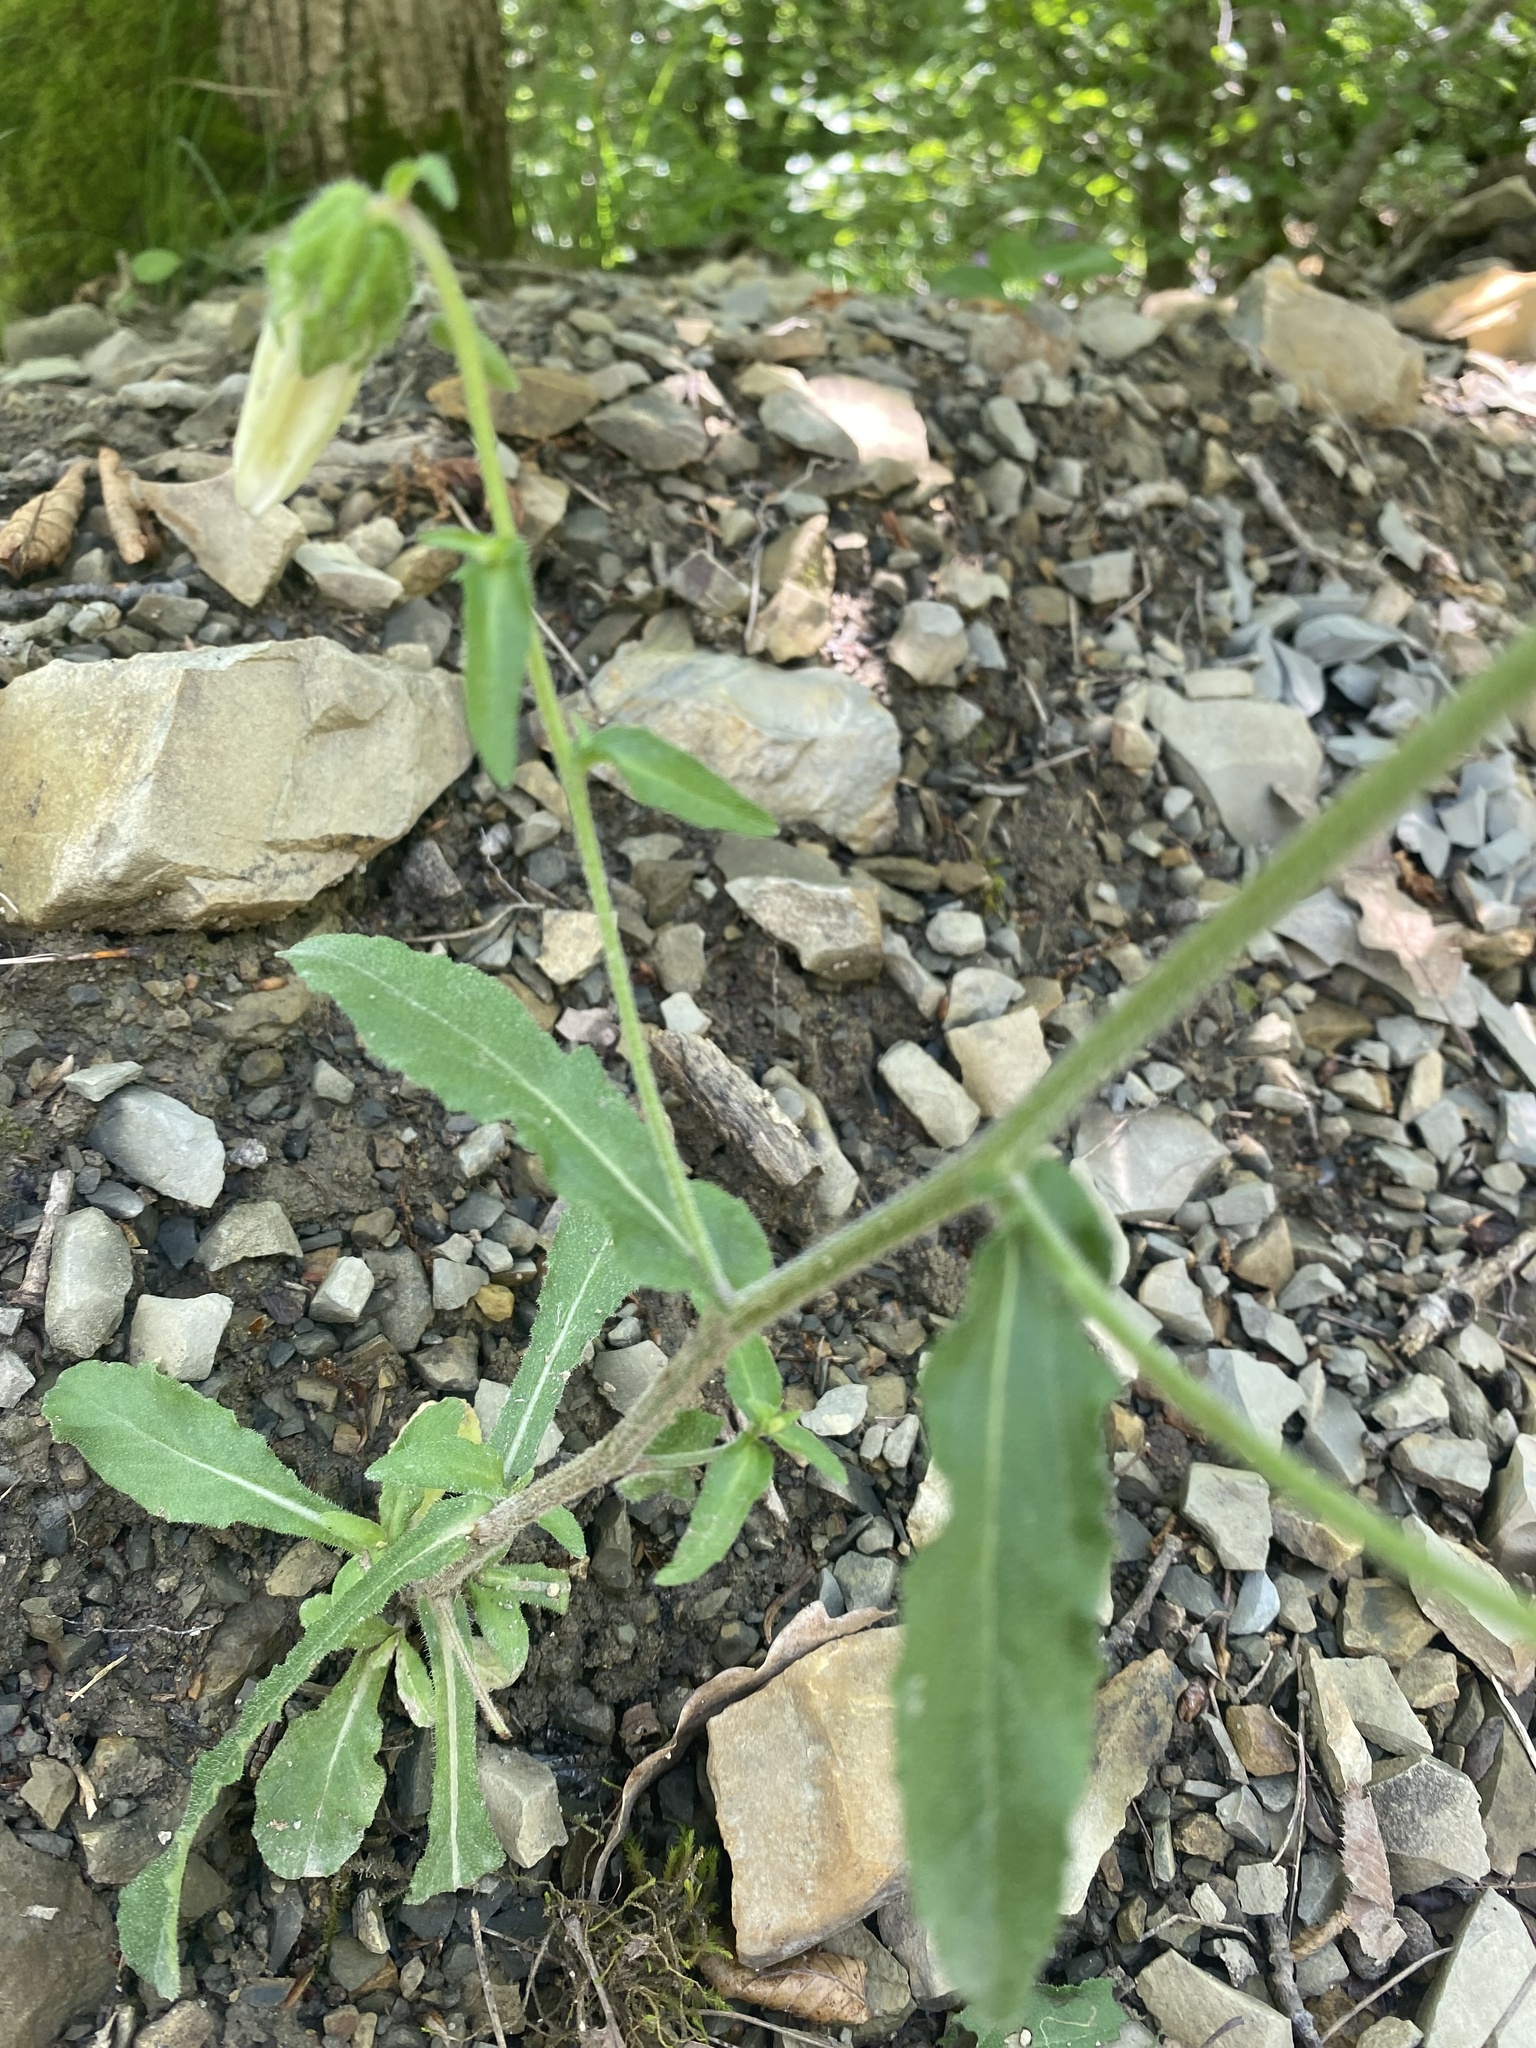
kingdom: Plantae
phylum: Tracheophyta
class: Magnoliopsida
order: Asterales
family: Campanulaceae
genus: Campanula
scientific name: Campanula komarovii
